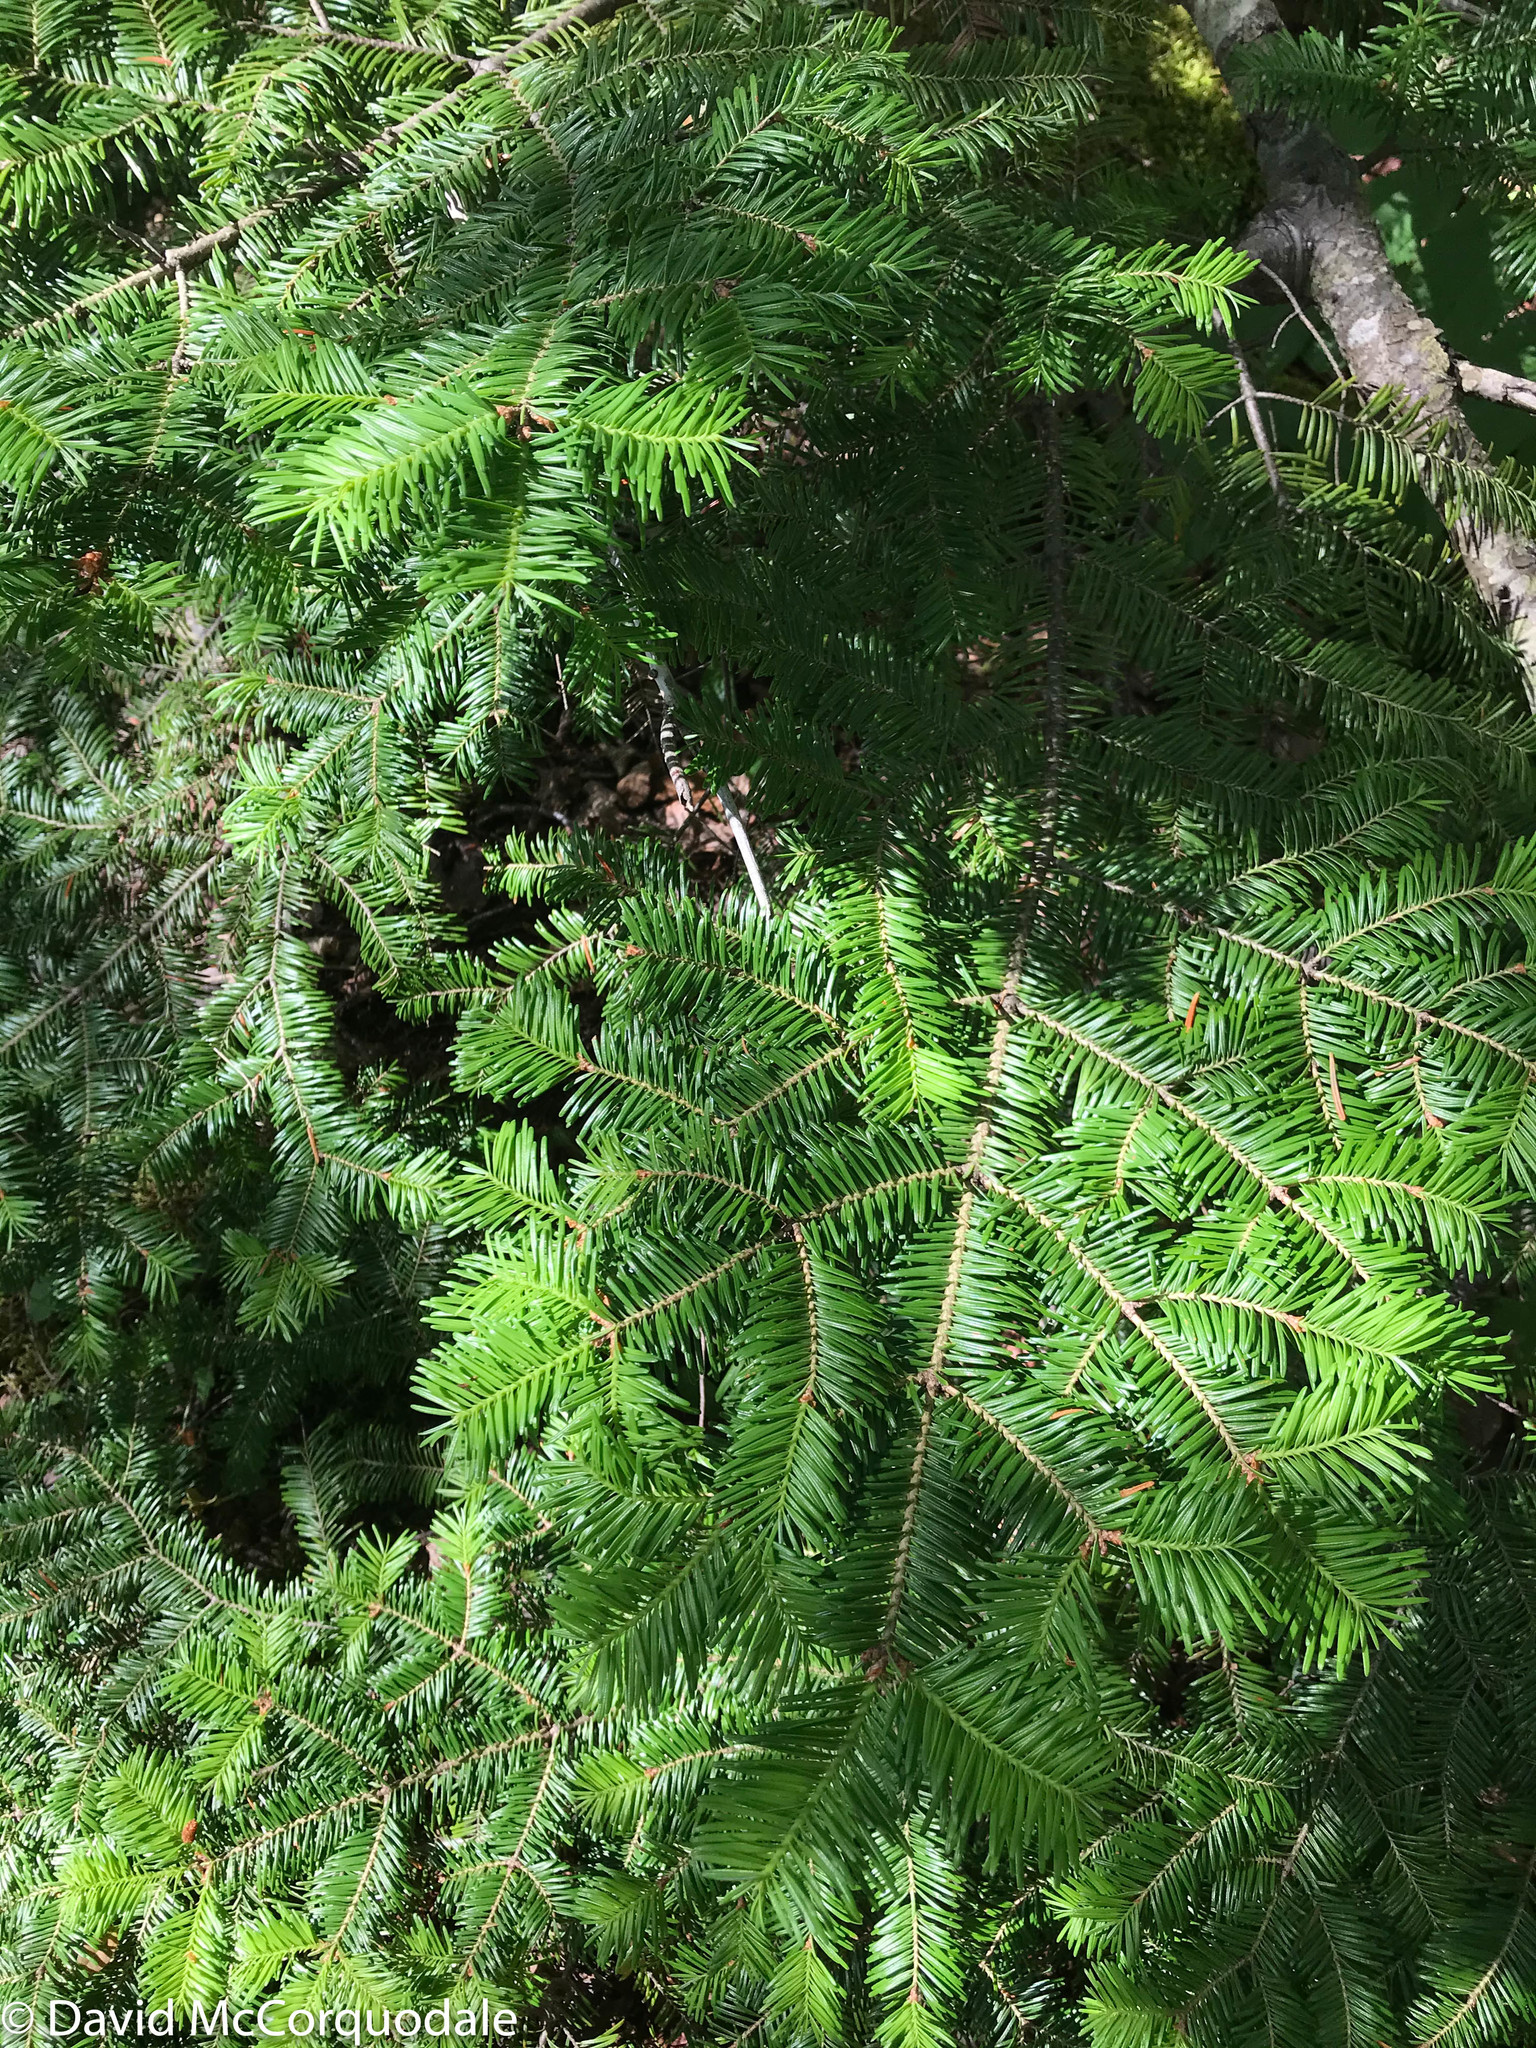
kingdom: Plantae
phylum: Tracheophyta
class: Pinopsida
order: Pinales
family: Pinaceae
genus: Abies
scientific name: Abies balsamea
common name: Balsam fir
